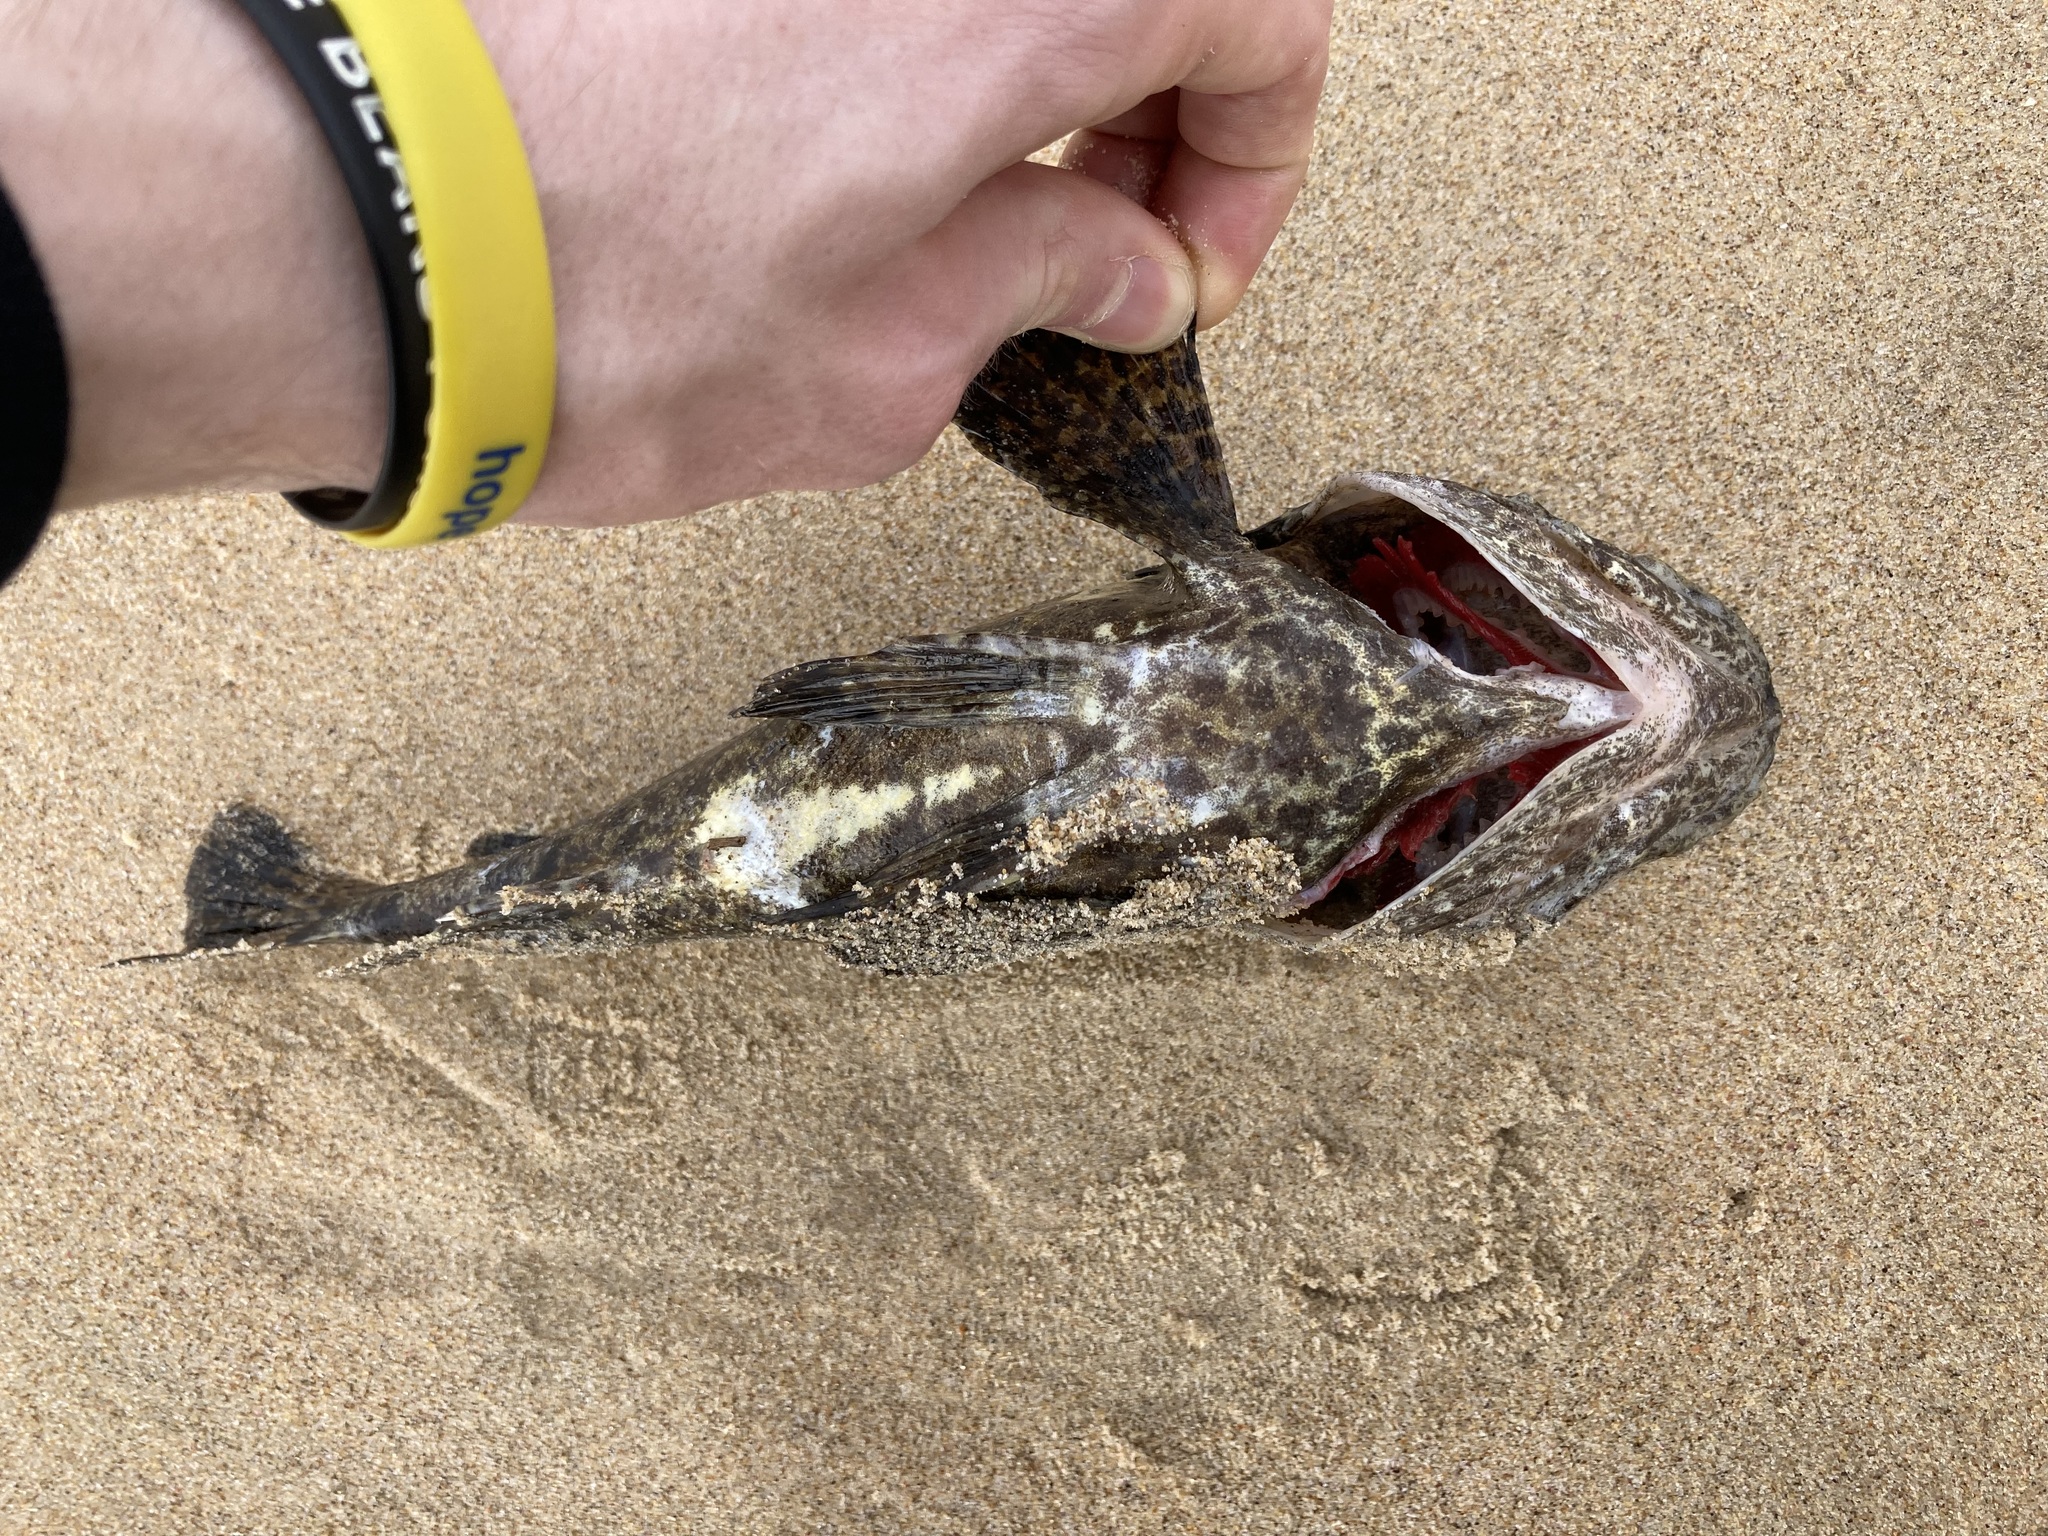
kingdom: Animalia
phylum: Chordata
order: Scorpaeniformes
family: Tetrarogidae
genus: Notesthes
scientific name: Notesthes robusta
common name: Bullrout
